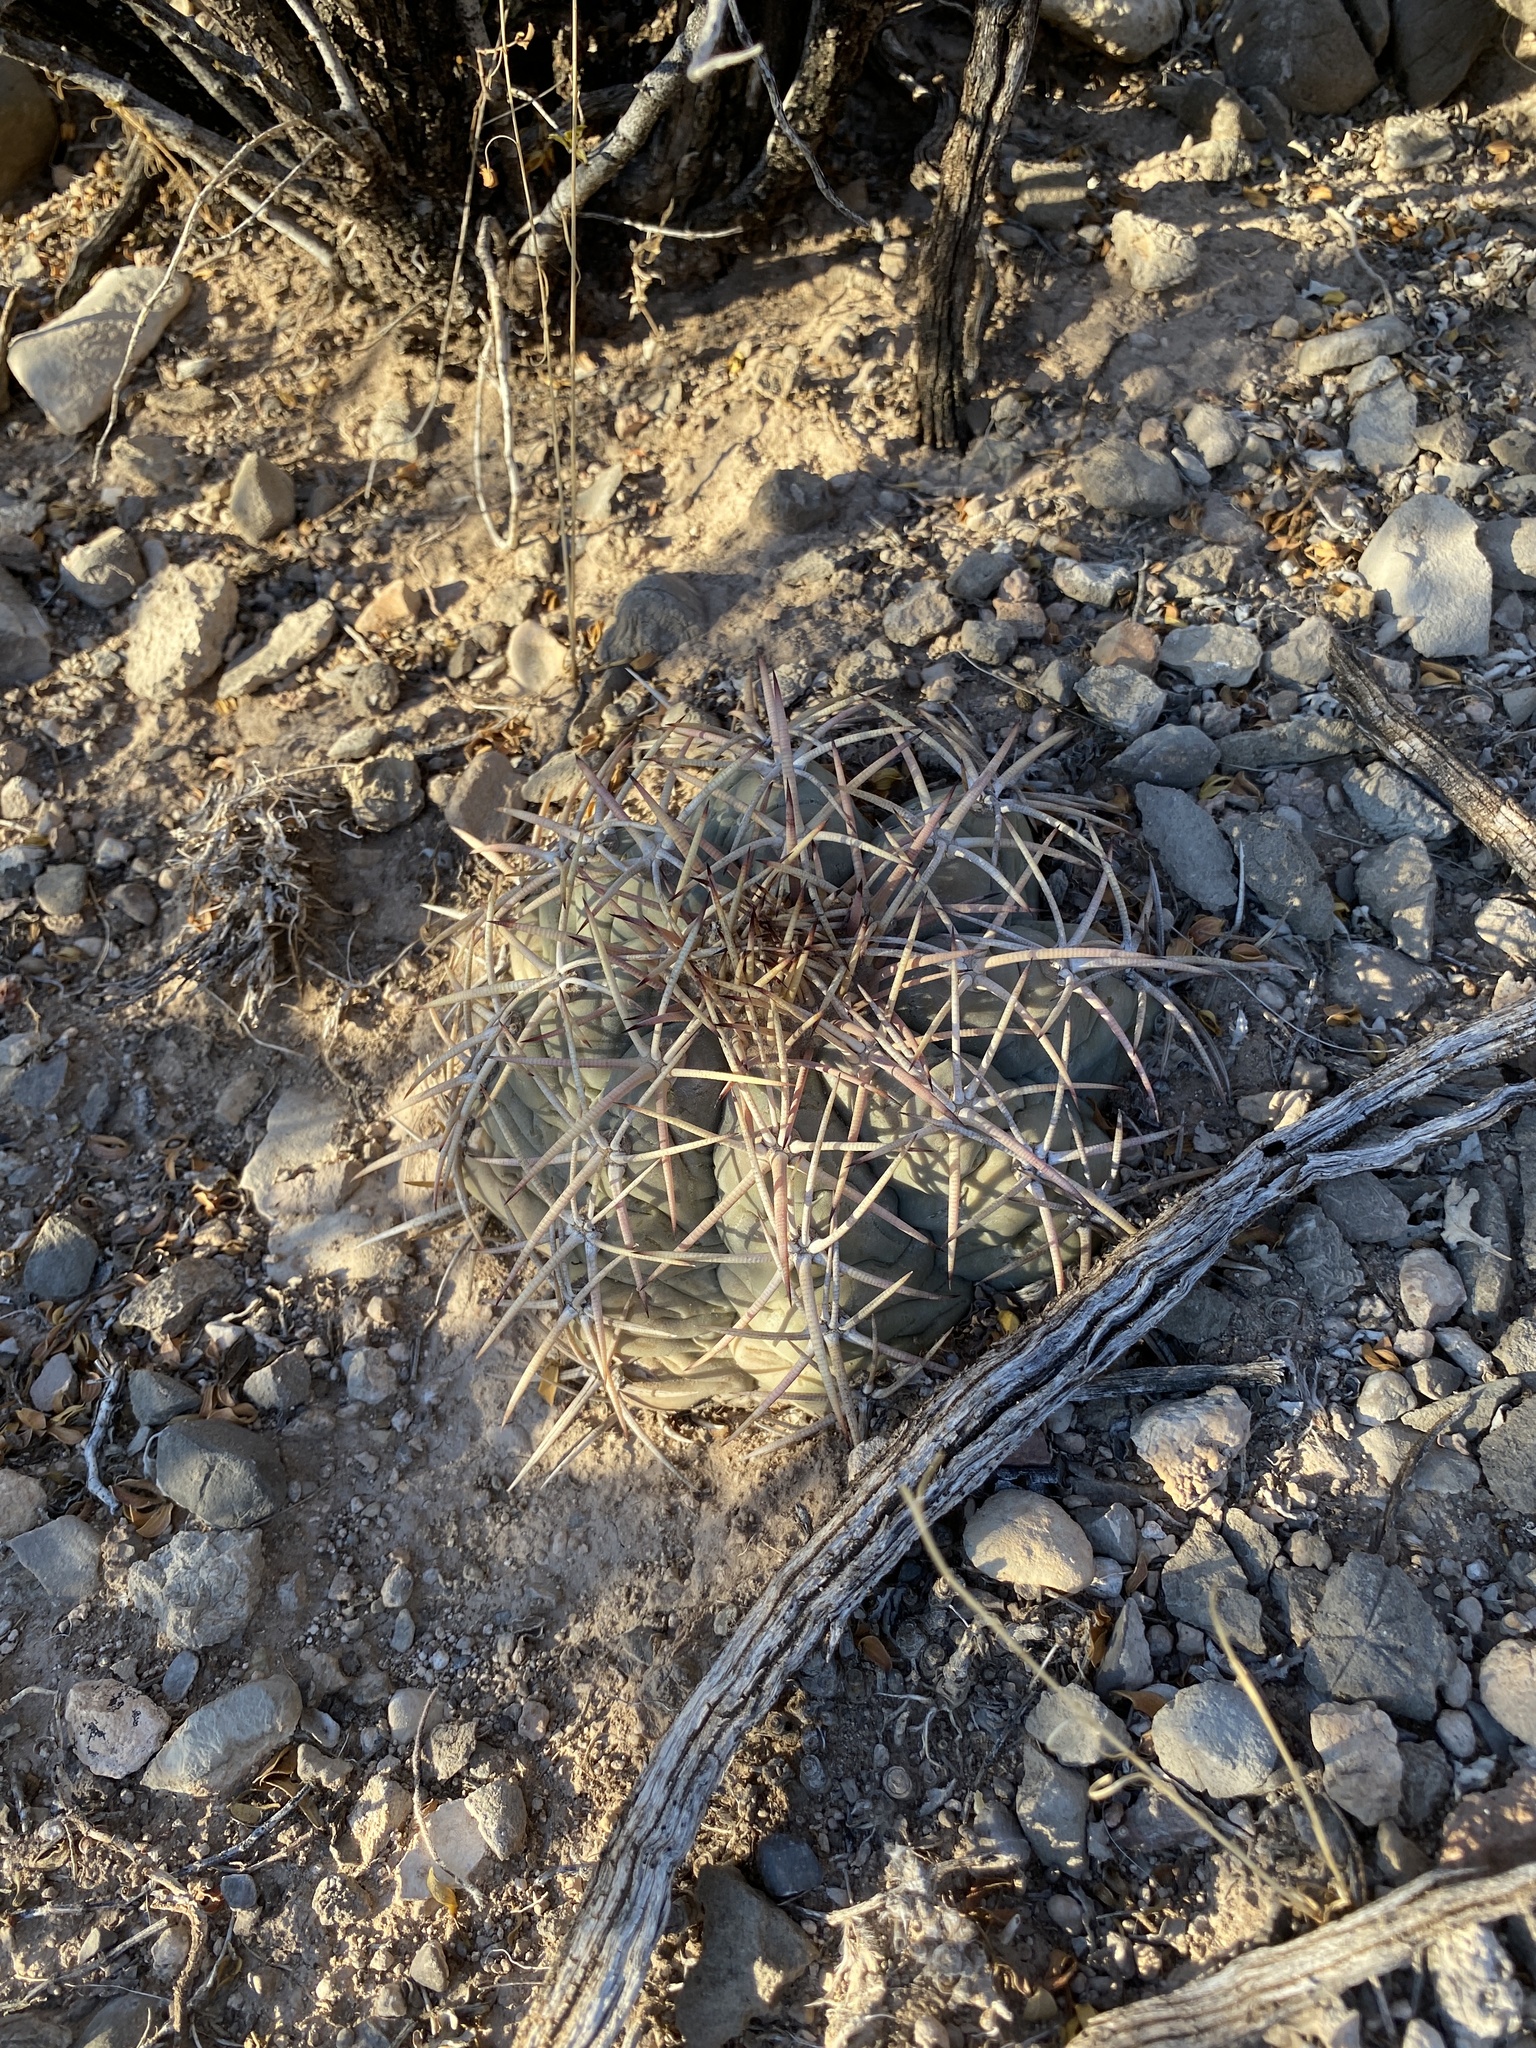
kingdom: Plantae
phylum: Tracheophyta
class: Magnoliopsida
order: Caryophyllales
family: Cactaceae
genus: Echinocactus
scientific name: Echinocactus horizonthalonius
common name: Devilshead
